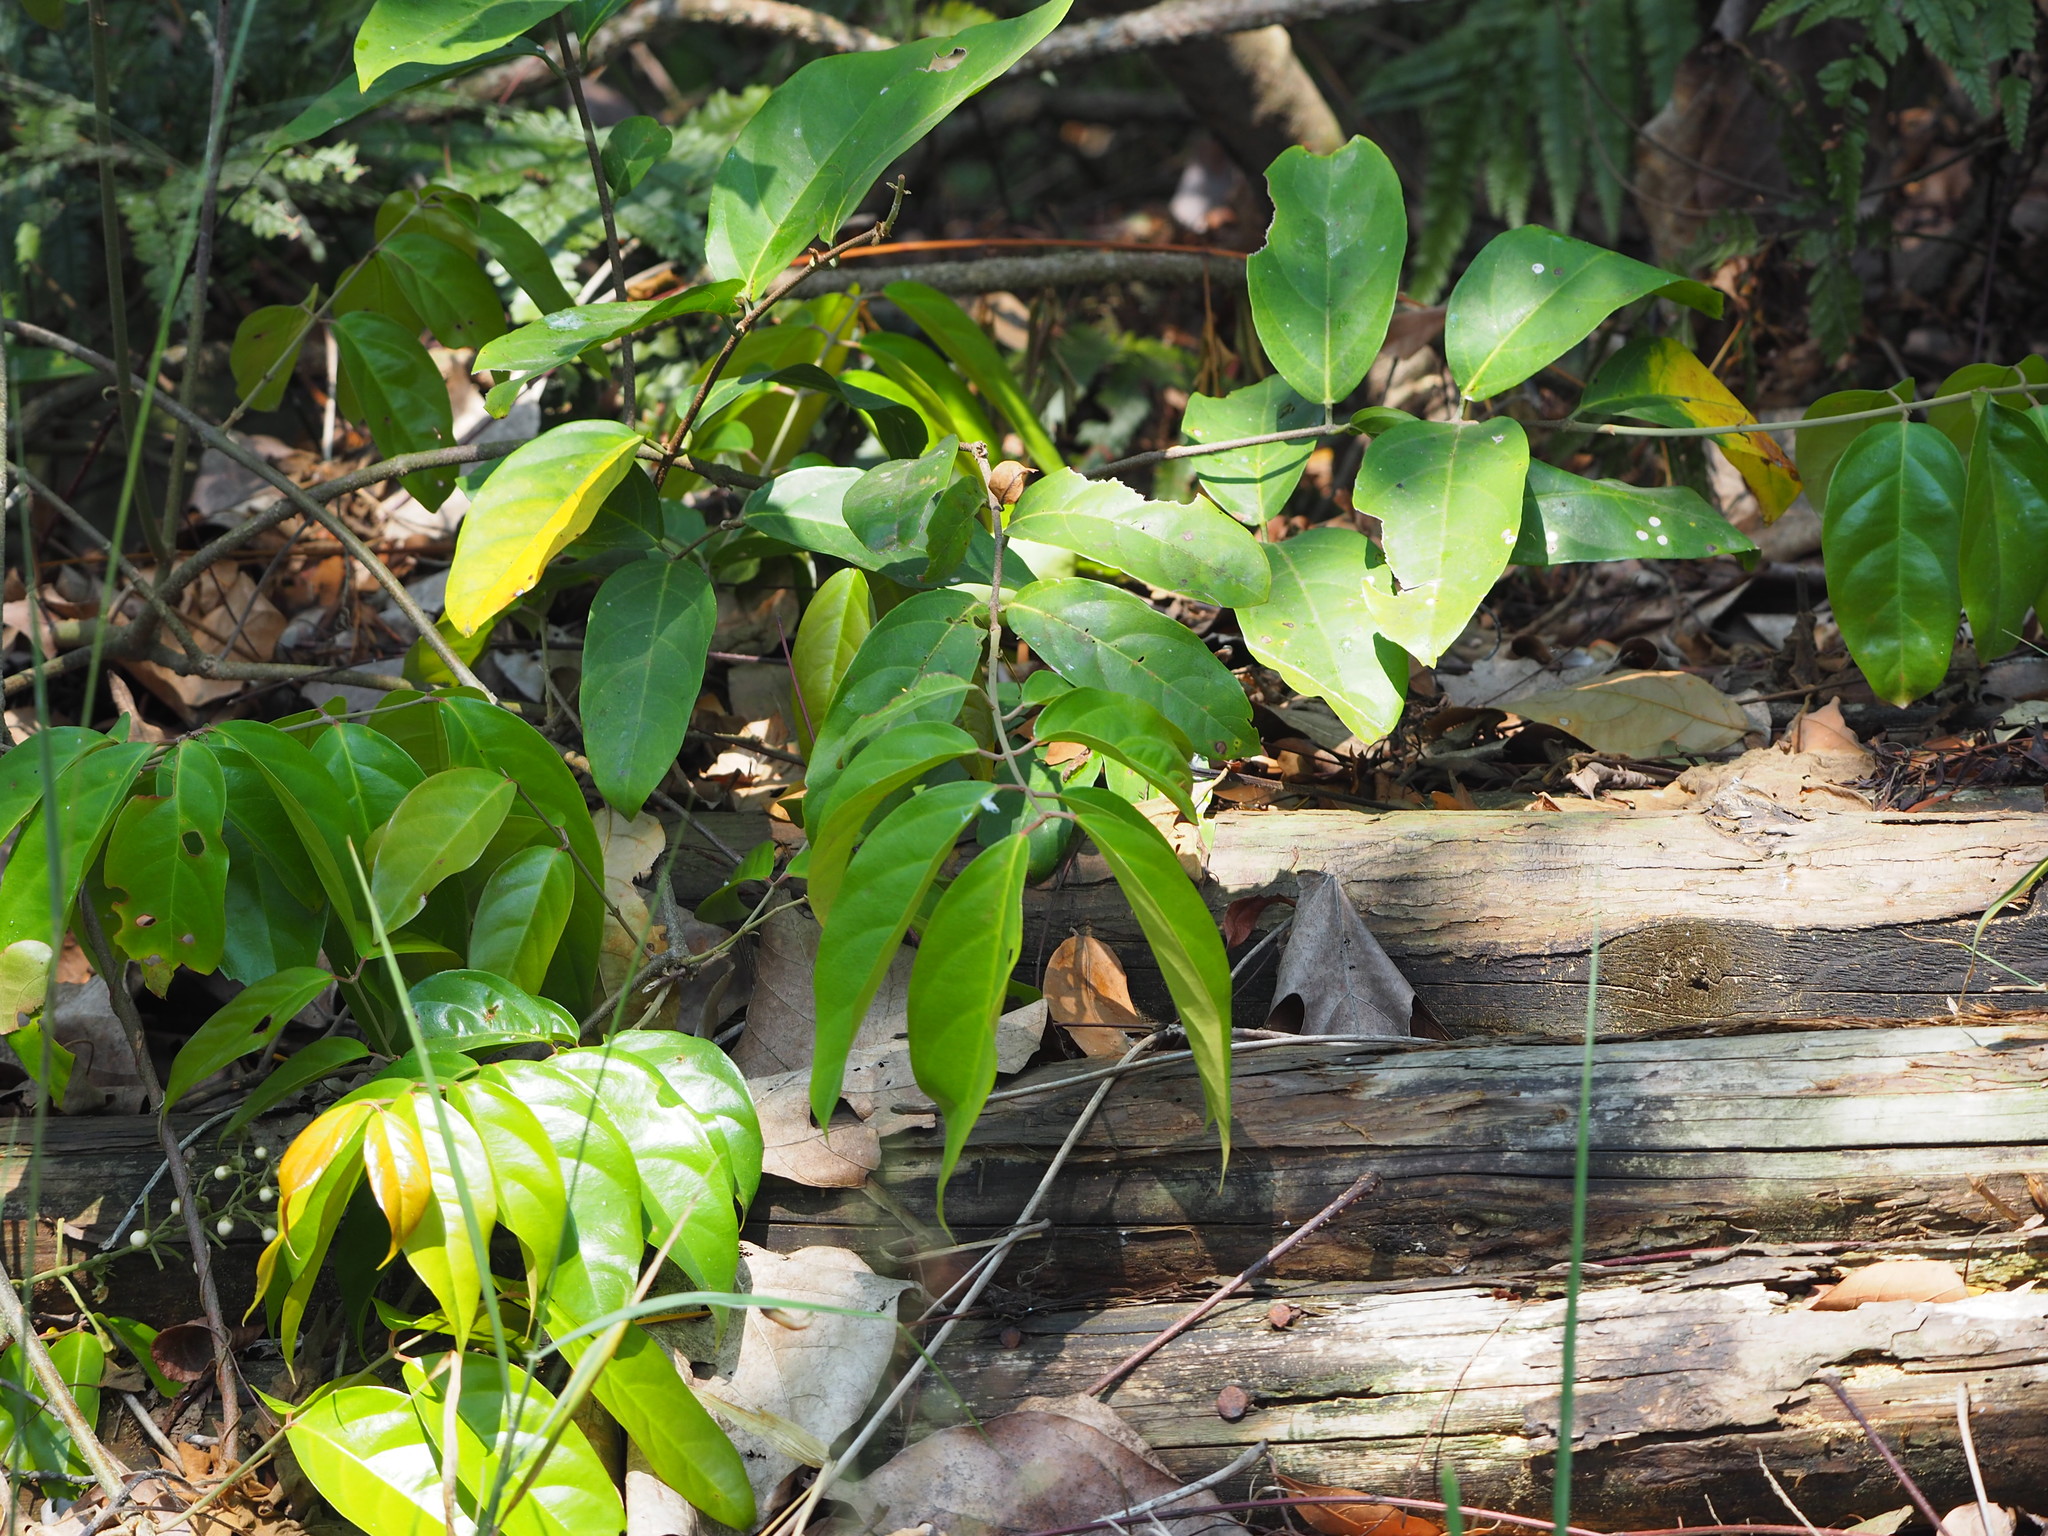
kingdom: Plantae
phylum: Tracheophyta
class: Magnoliopsida
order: Malpighiales
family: Malpighiaceae
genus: Hiptage
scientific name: Hiptage benghalensis
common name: Hiptage
